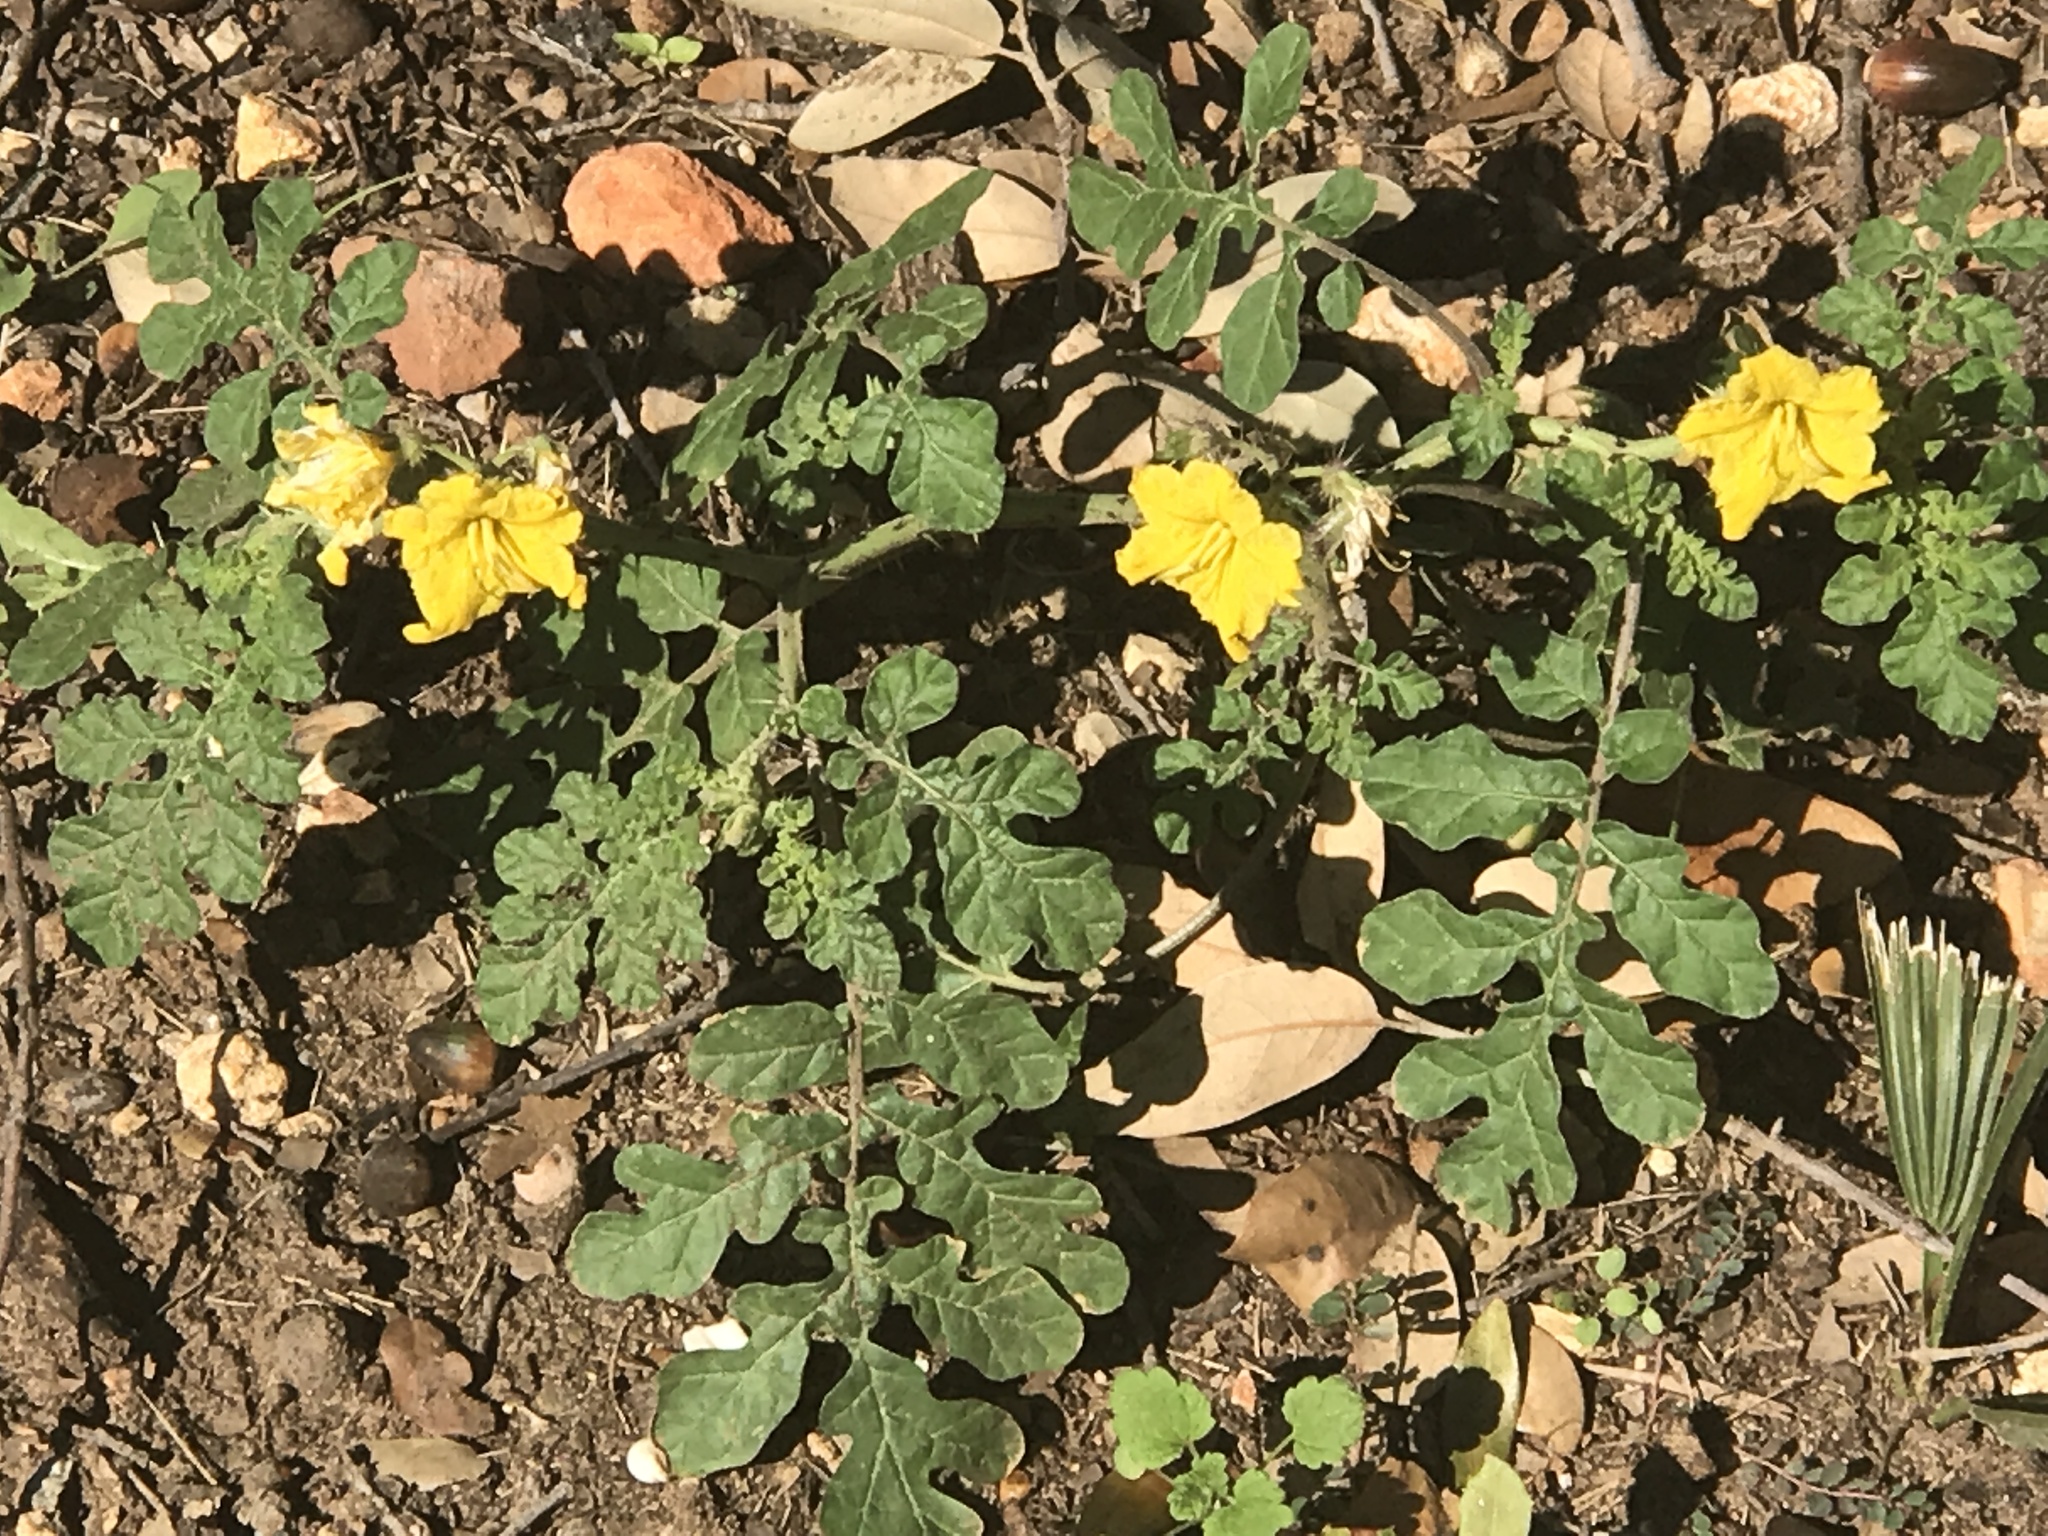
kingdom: Plantae
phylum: Tracheophyta
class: Magnoliopsida
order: Solanales
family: Solanaceae
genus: Solanum
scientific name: Solanum angustifolium
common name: Buffalobur nightshade
